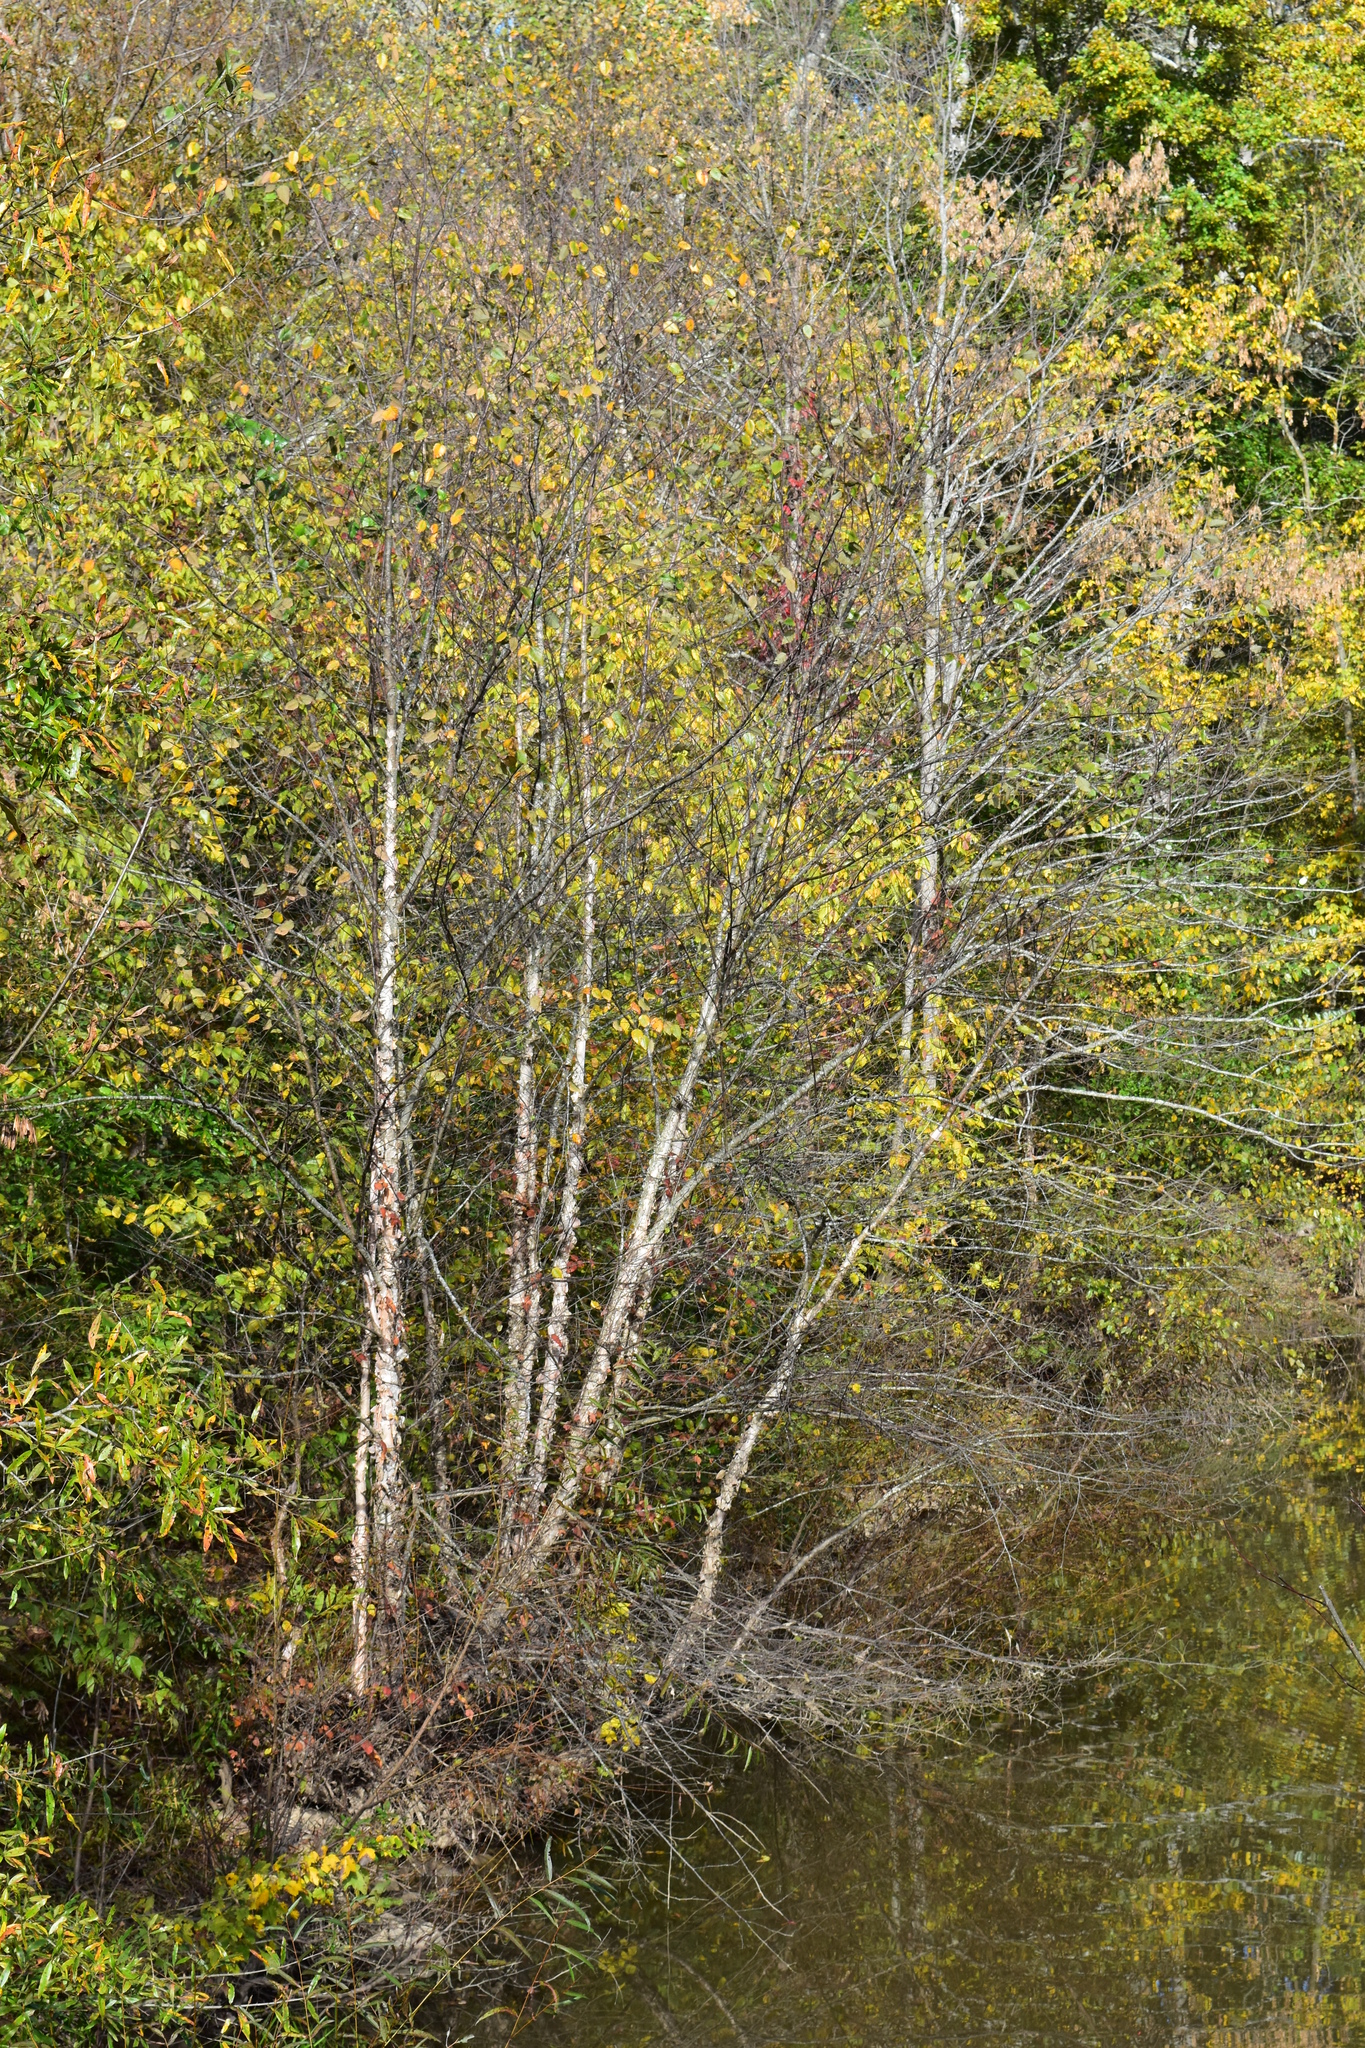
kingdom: Plantae
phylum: Tracheophyta
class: Magnoliopsida
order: Fagales
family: Betulaceae
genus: Betula
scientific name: Betula nigra
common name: Black birch
